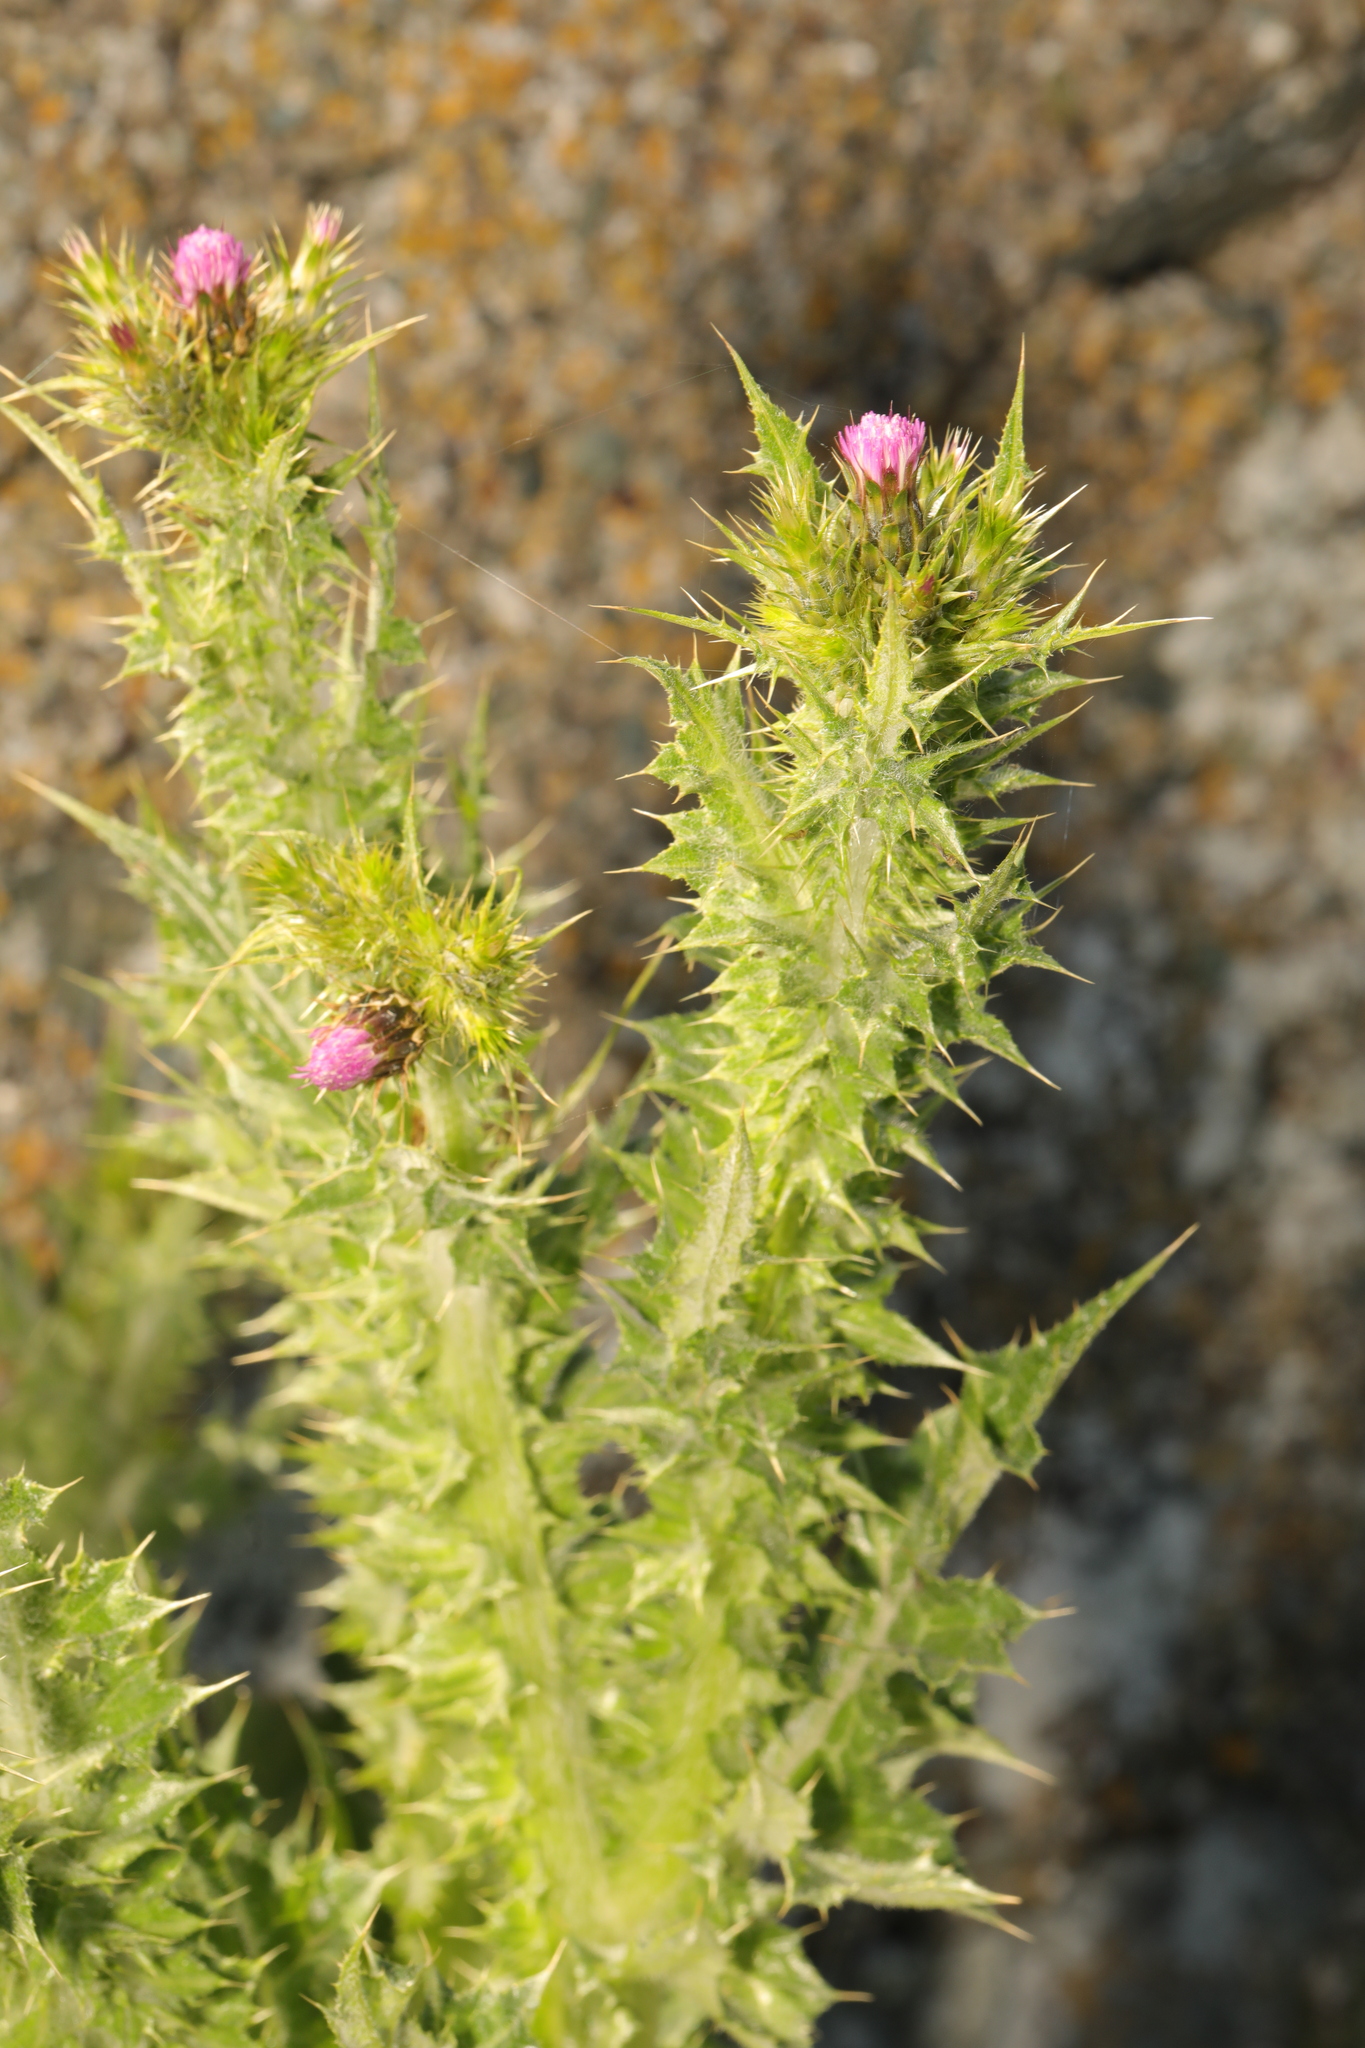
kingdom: Plantae
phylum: Tracheophyta
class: Magnoliopsida
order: Asterales
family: Asteraceae
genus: Carduus
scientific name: Carduus tenuiflorus
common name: Slender thistle
